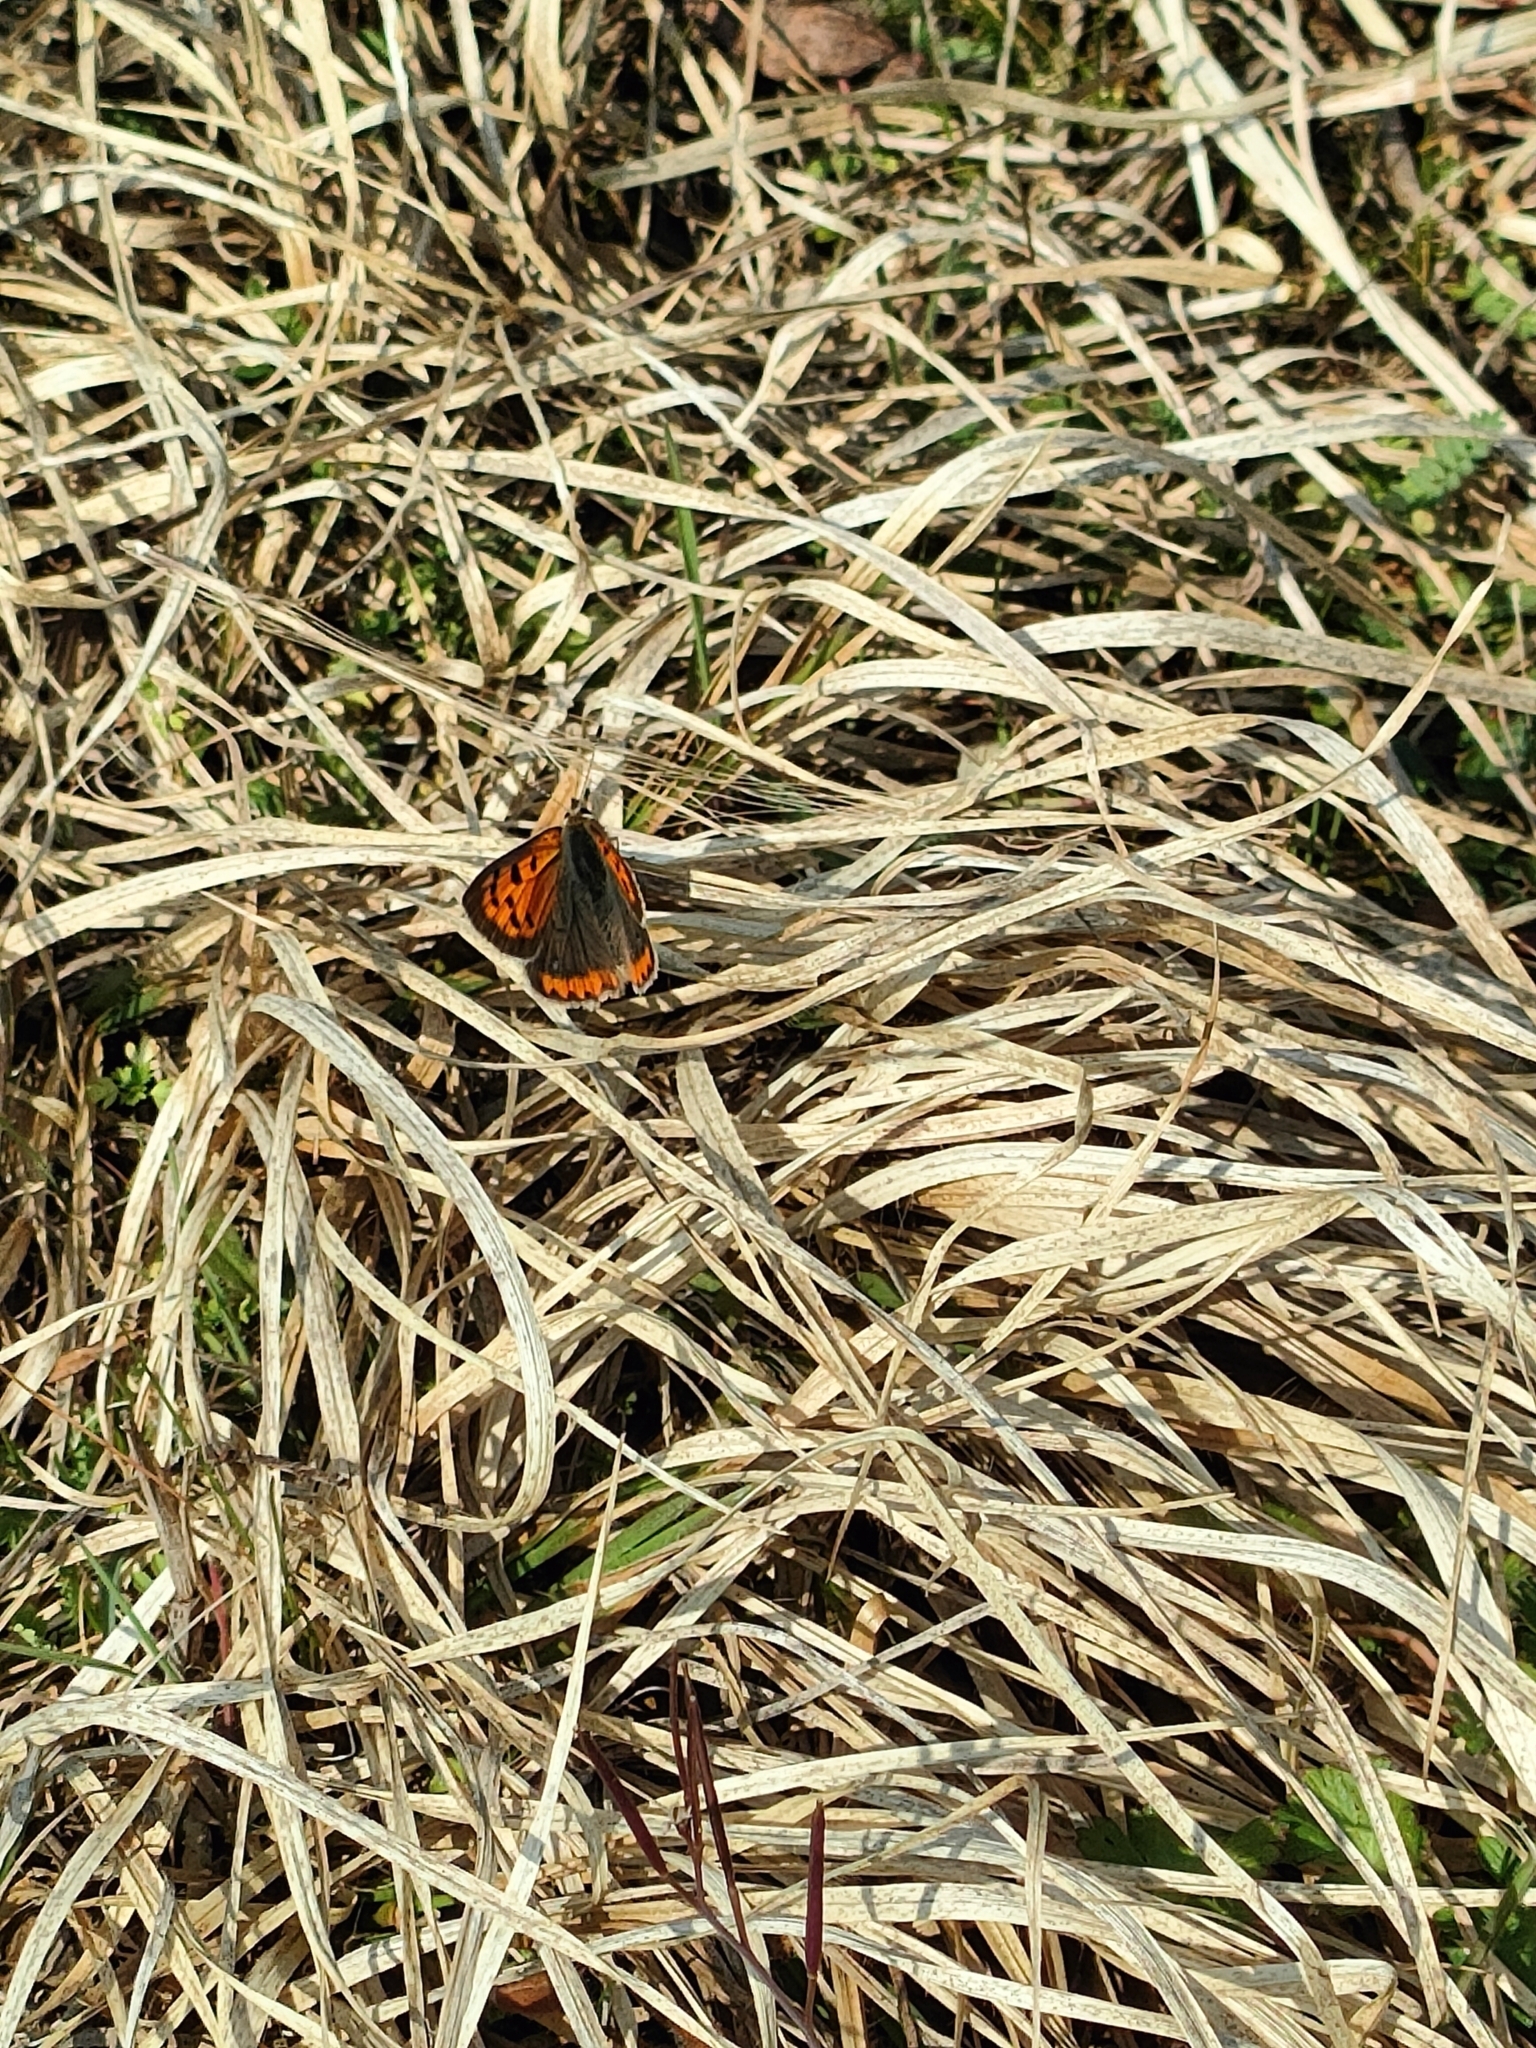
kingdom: Animalia
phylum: Arthropoda
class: Insecta
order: Lepidoptera
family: Lycaenidae
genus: Lycaena
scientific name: Lycaena phlaeas
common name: Small copper
